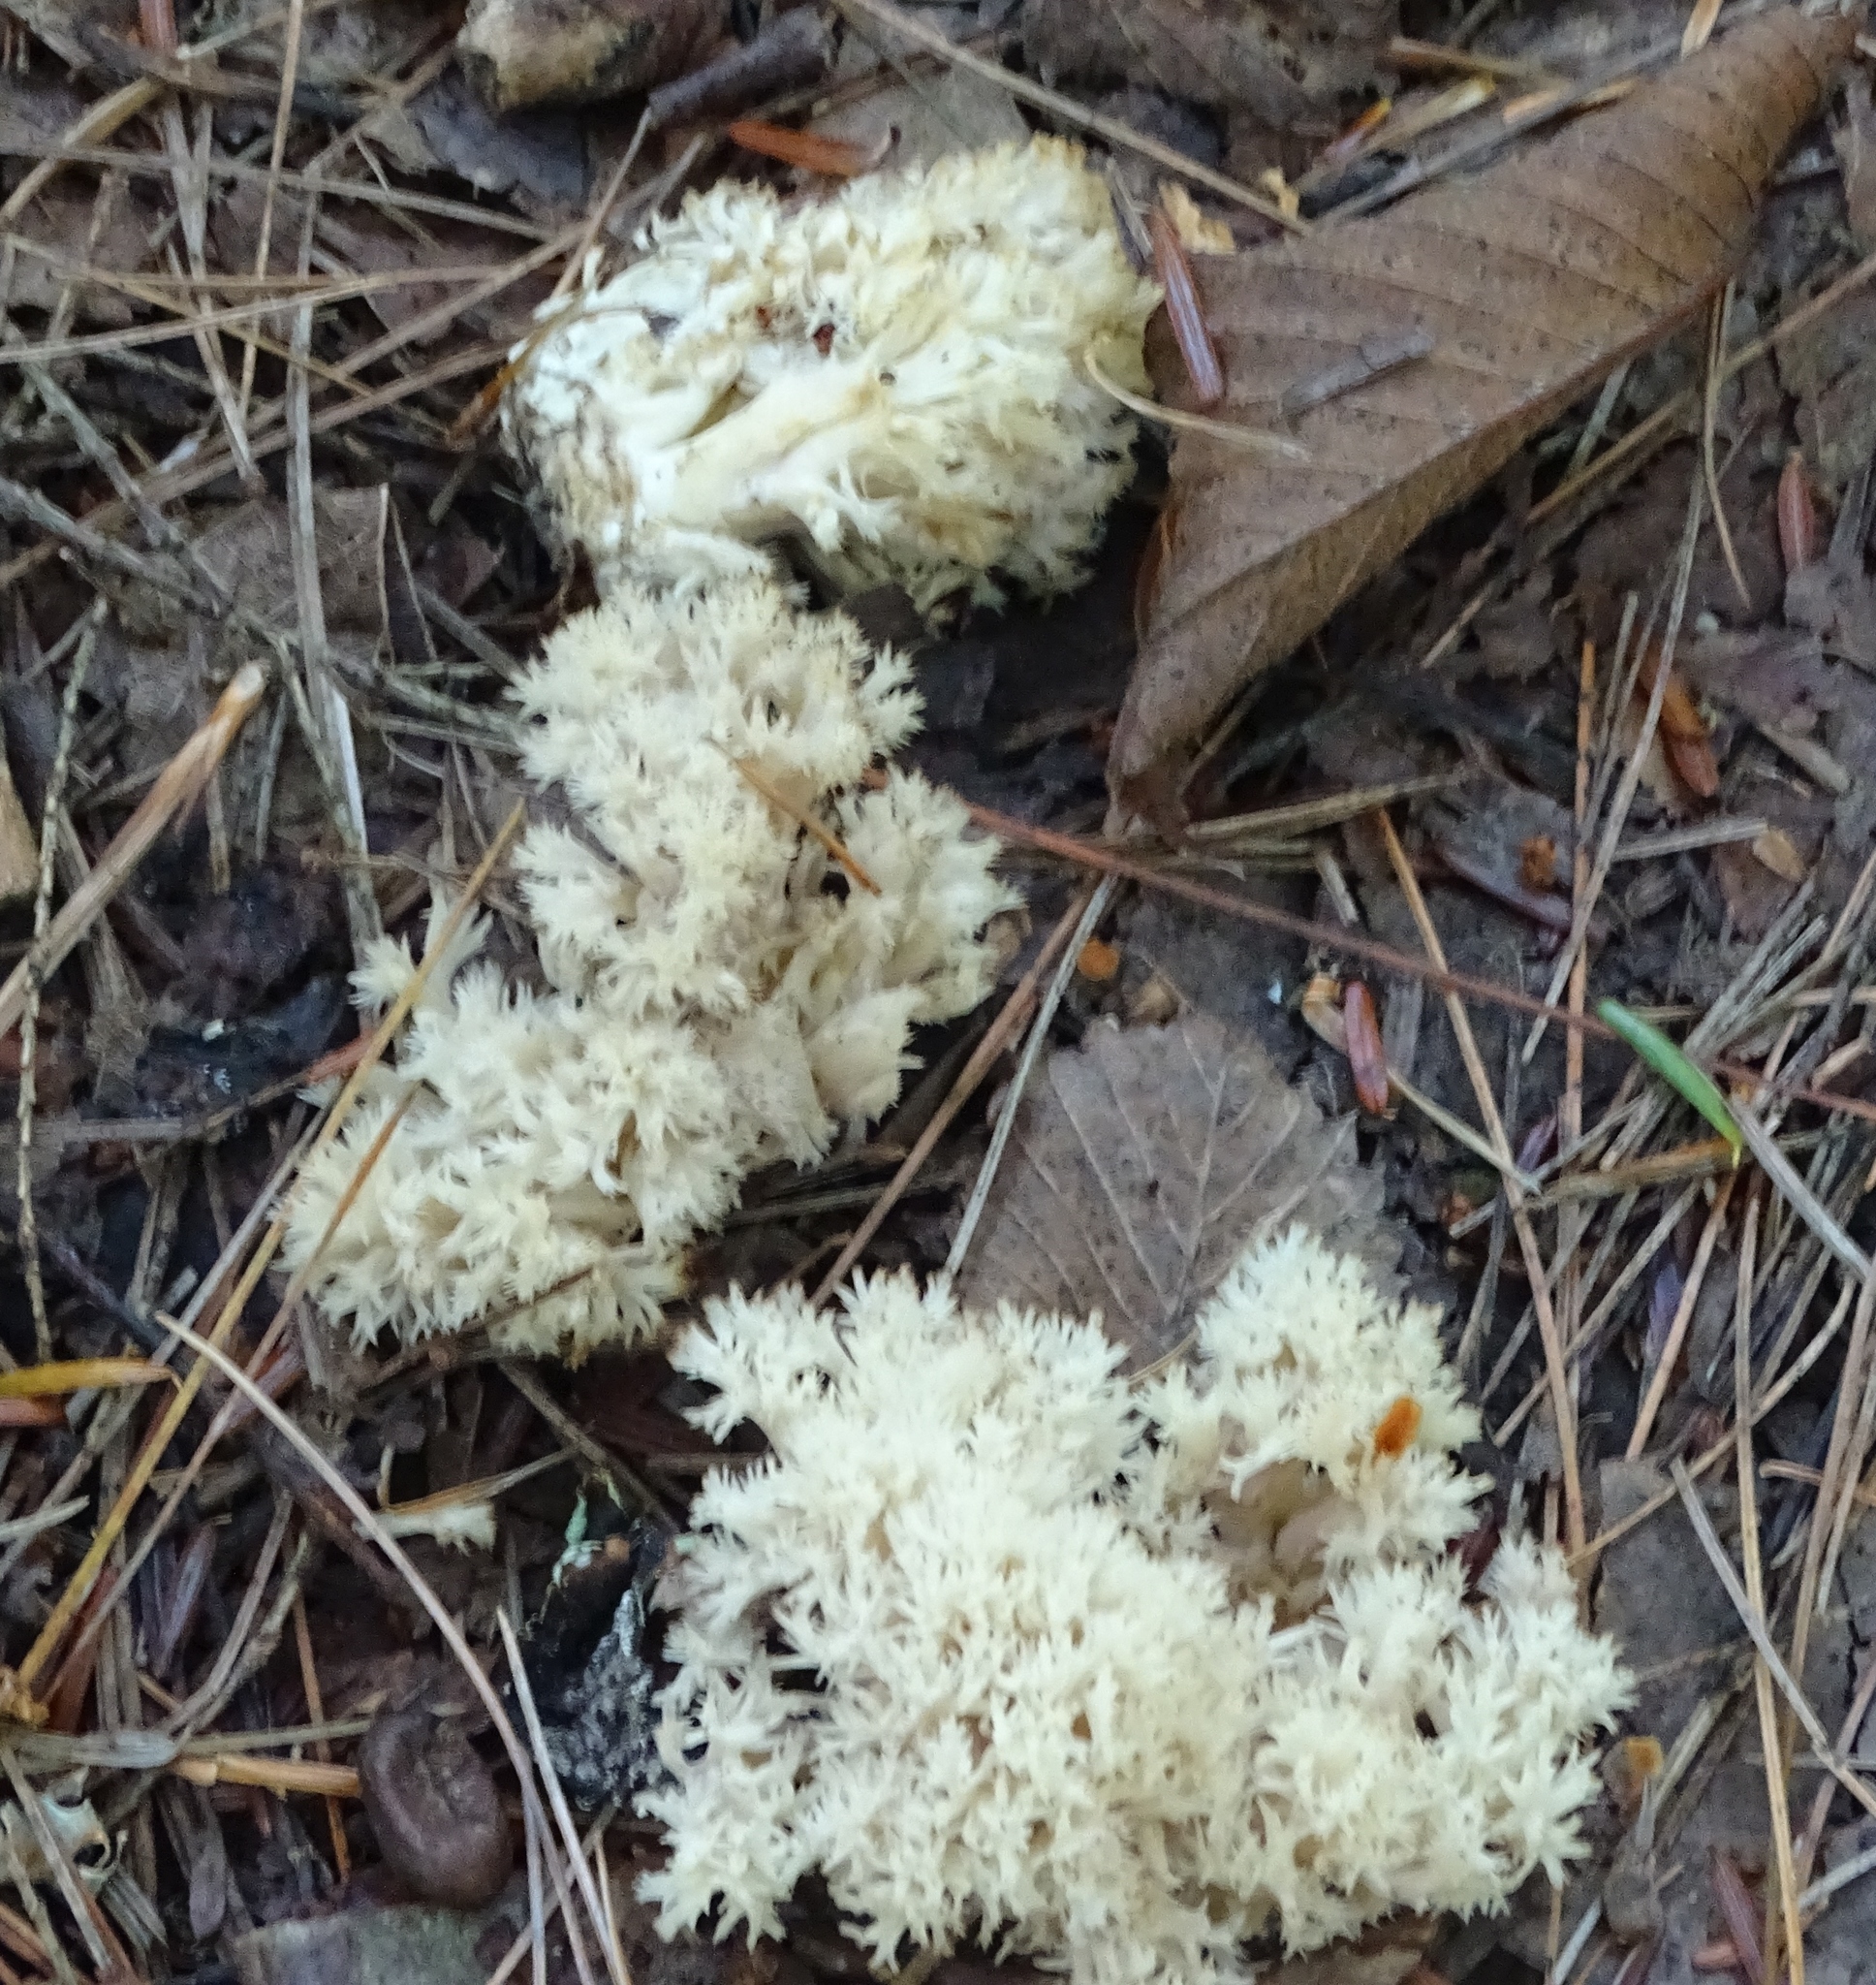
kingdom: Fungi
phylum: Basidiomycota
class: Agaricomycetes
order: Cantharellales
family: Hydnaceae
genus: Clavulina
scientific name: Clavulina coralloides
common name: Crested coral
